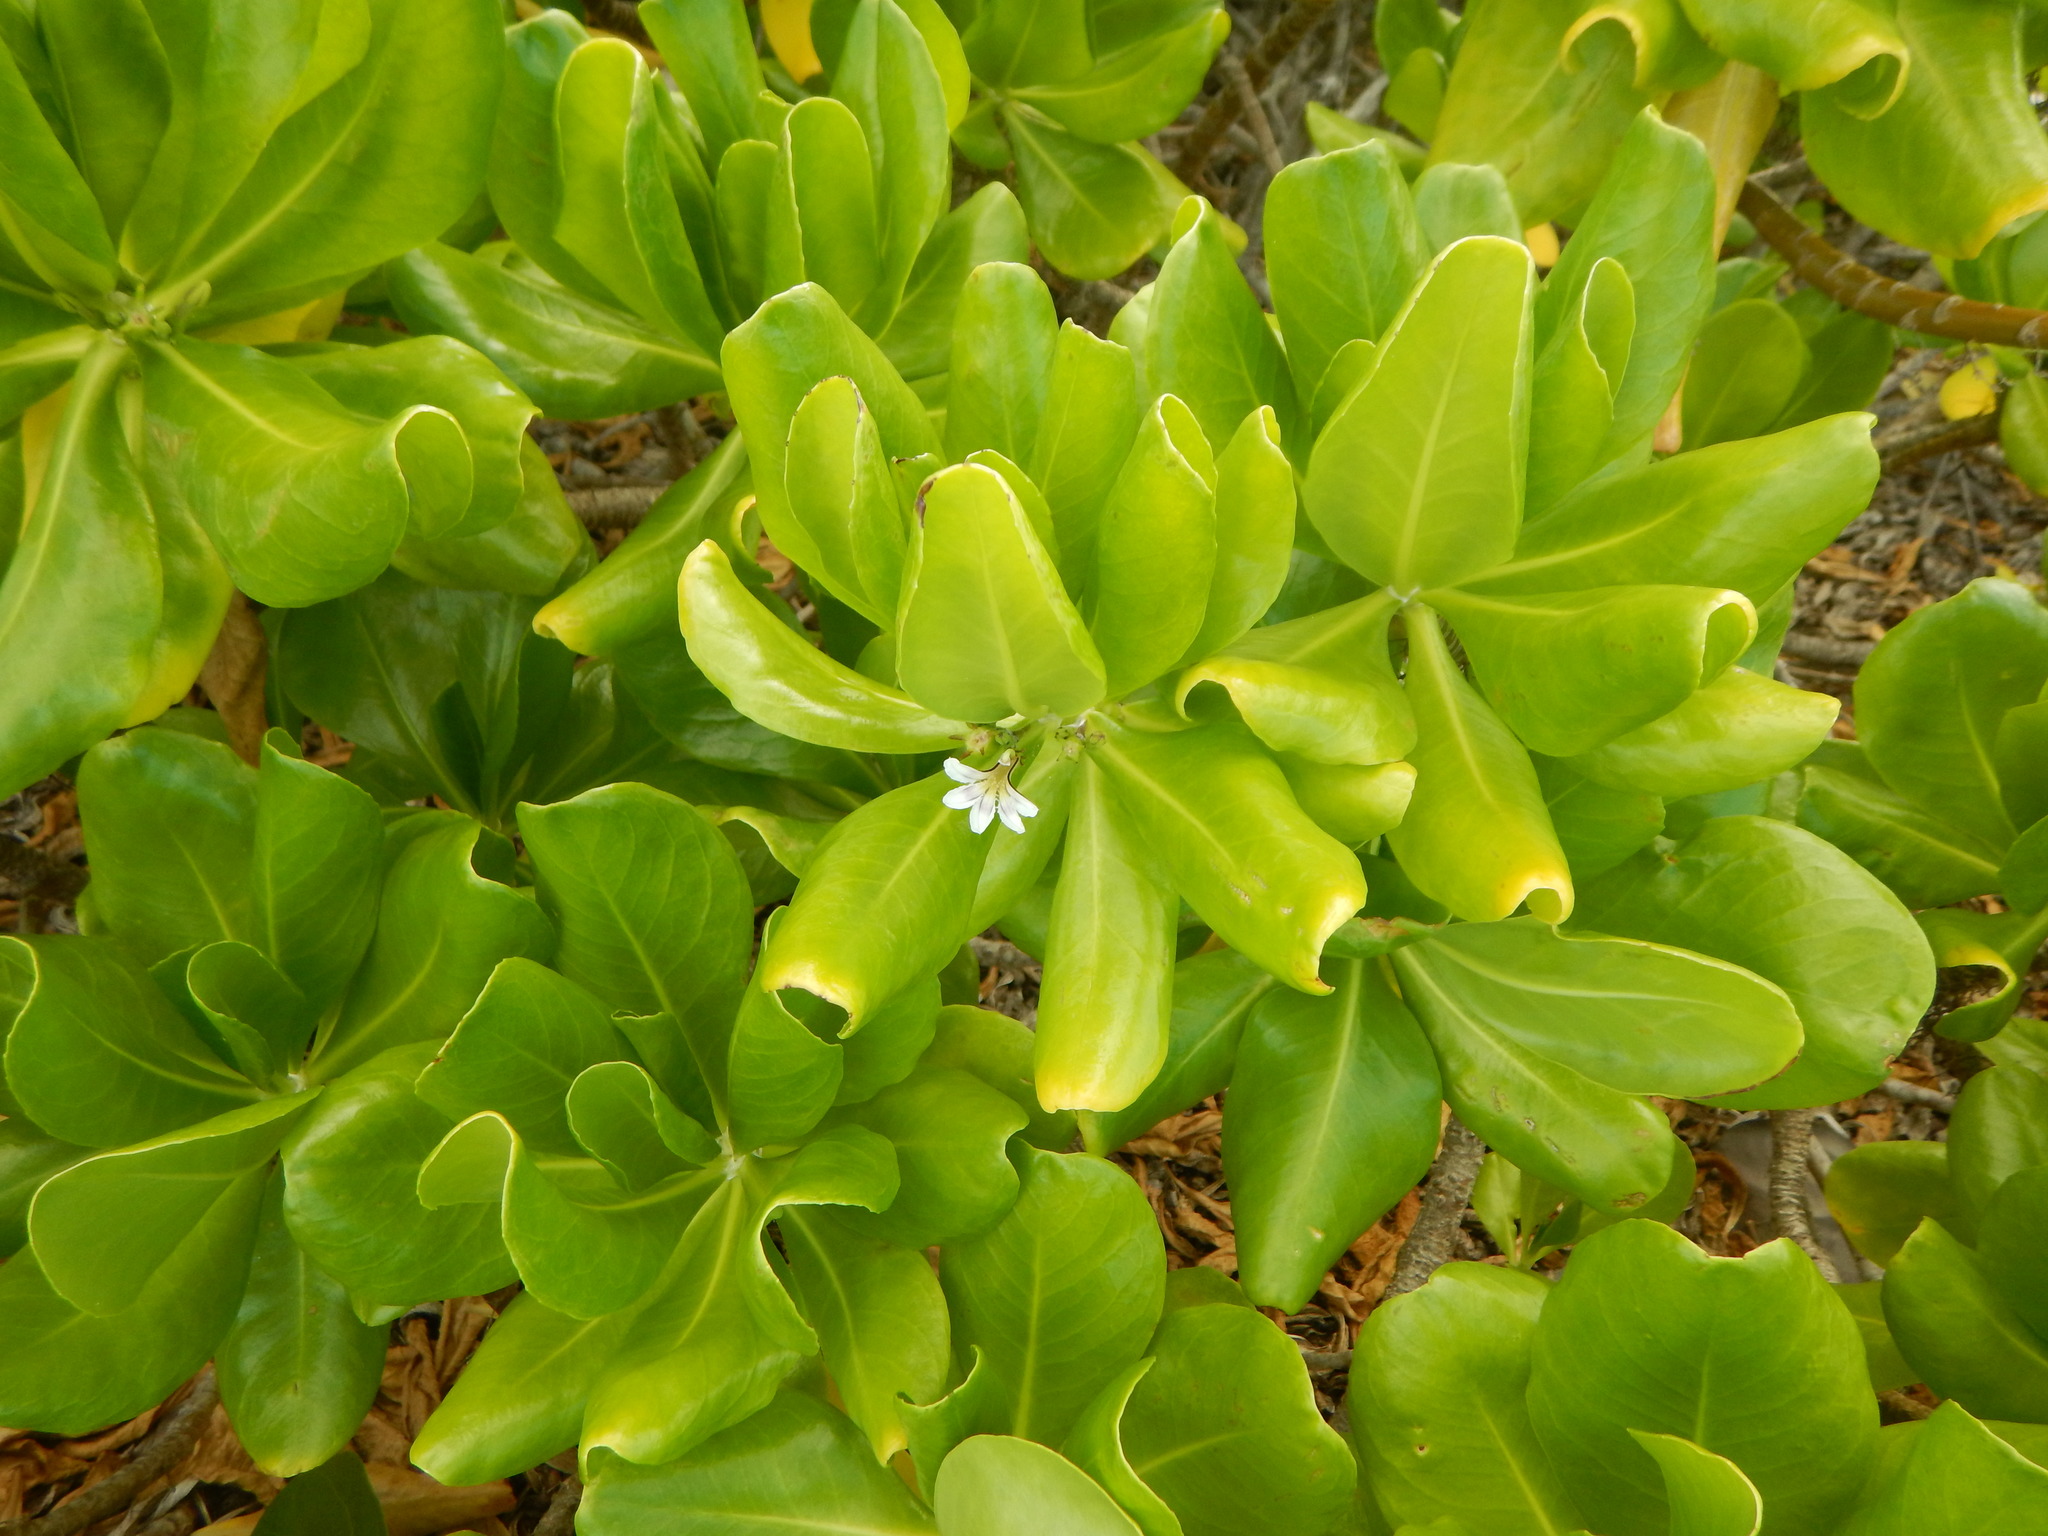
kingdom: Plantae
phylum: Tracheophyta
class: Magnoliopsida
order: Asterales
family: Goodeniaceae
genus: Scaevola
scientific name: Scaevola taccada
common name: Sea lettucetree
